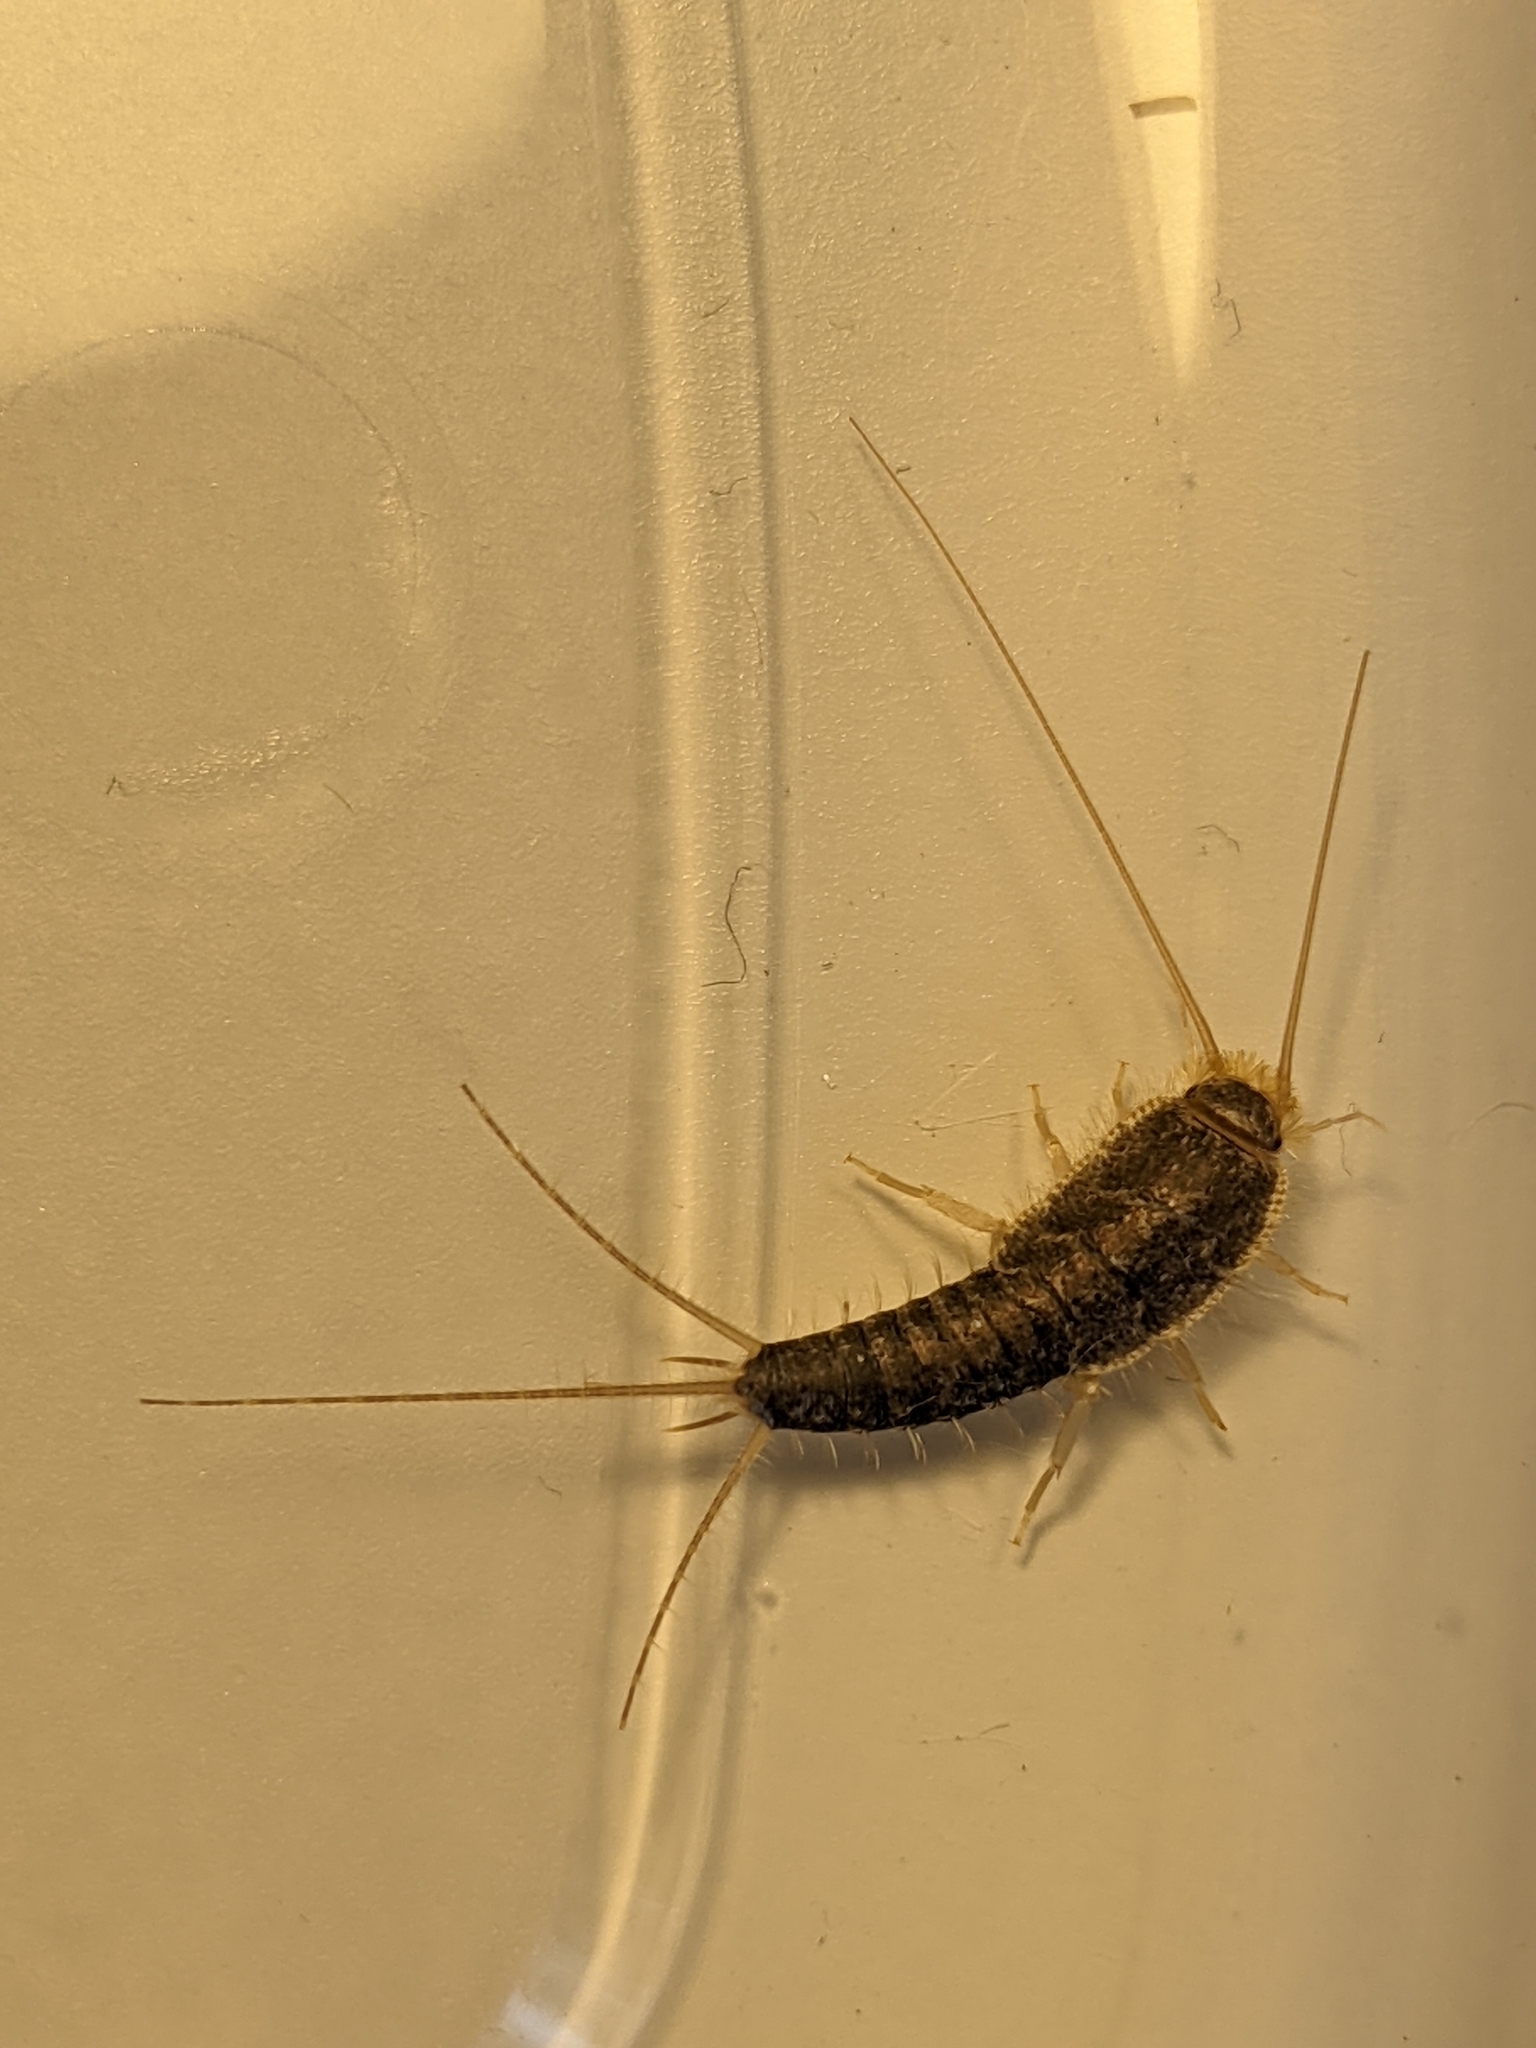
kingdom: Animalia
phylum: Arthropoda
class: Insecta
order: Zygentoma
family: Lepismatidae
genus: Ctenolepisma
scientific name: Ctenolepisma longicaudatum
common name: Silverfish
